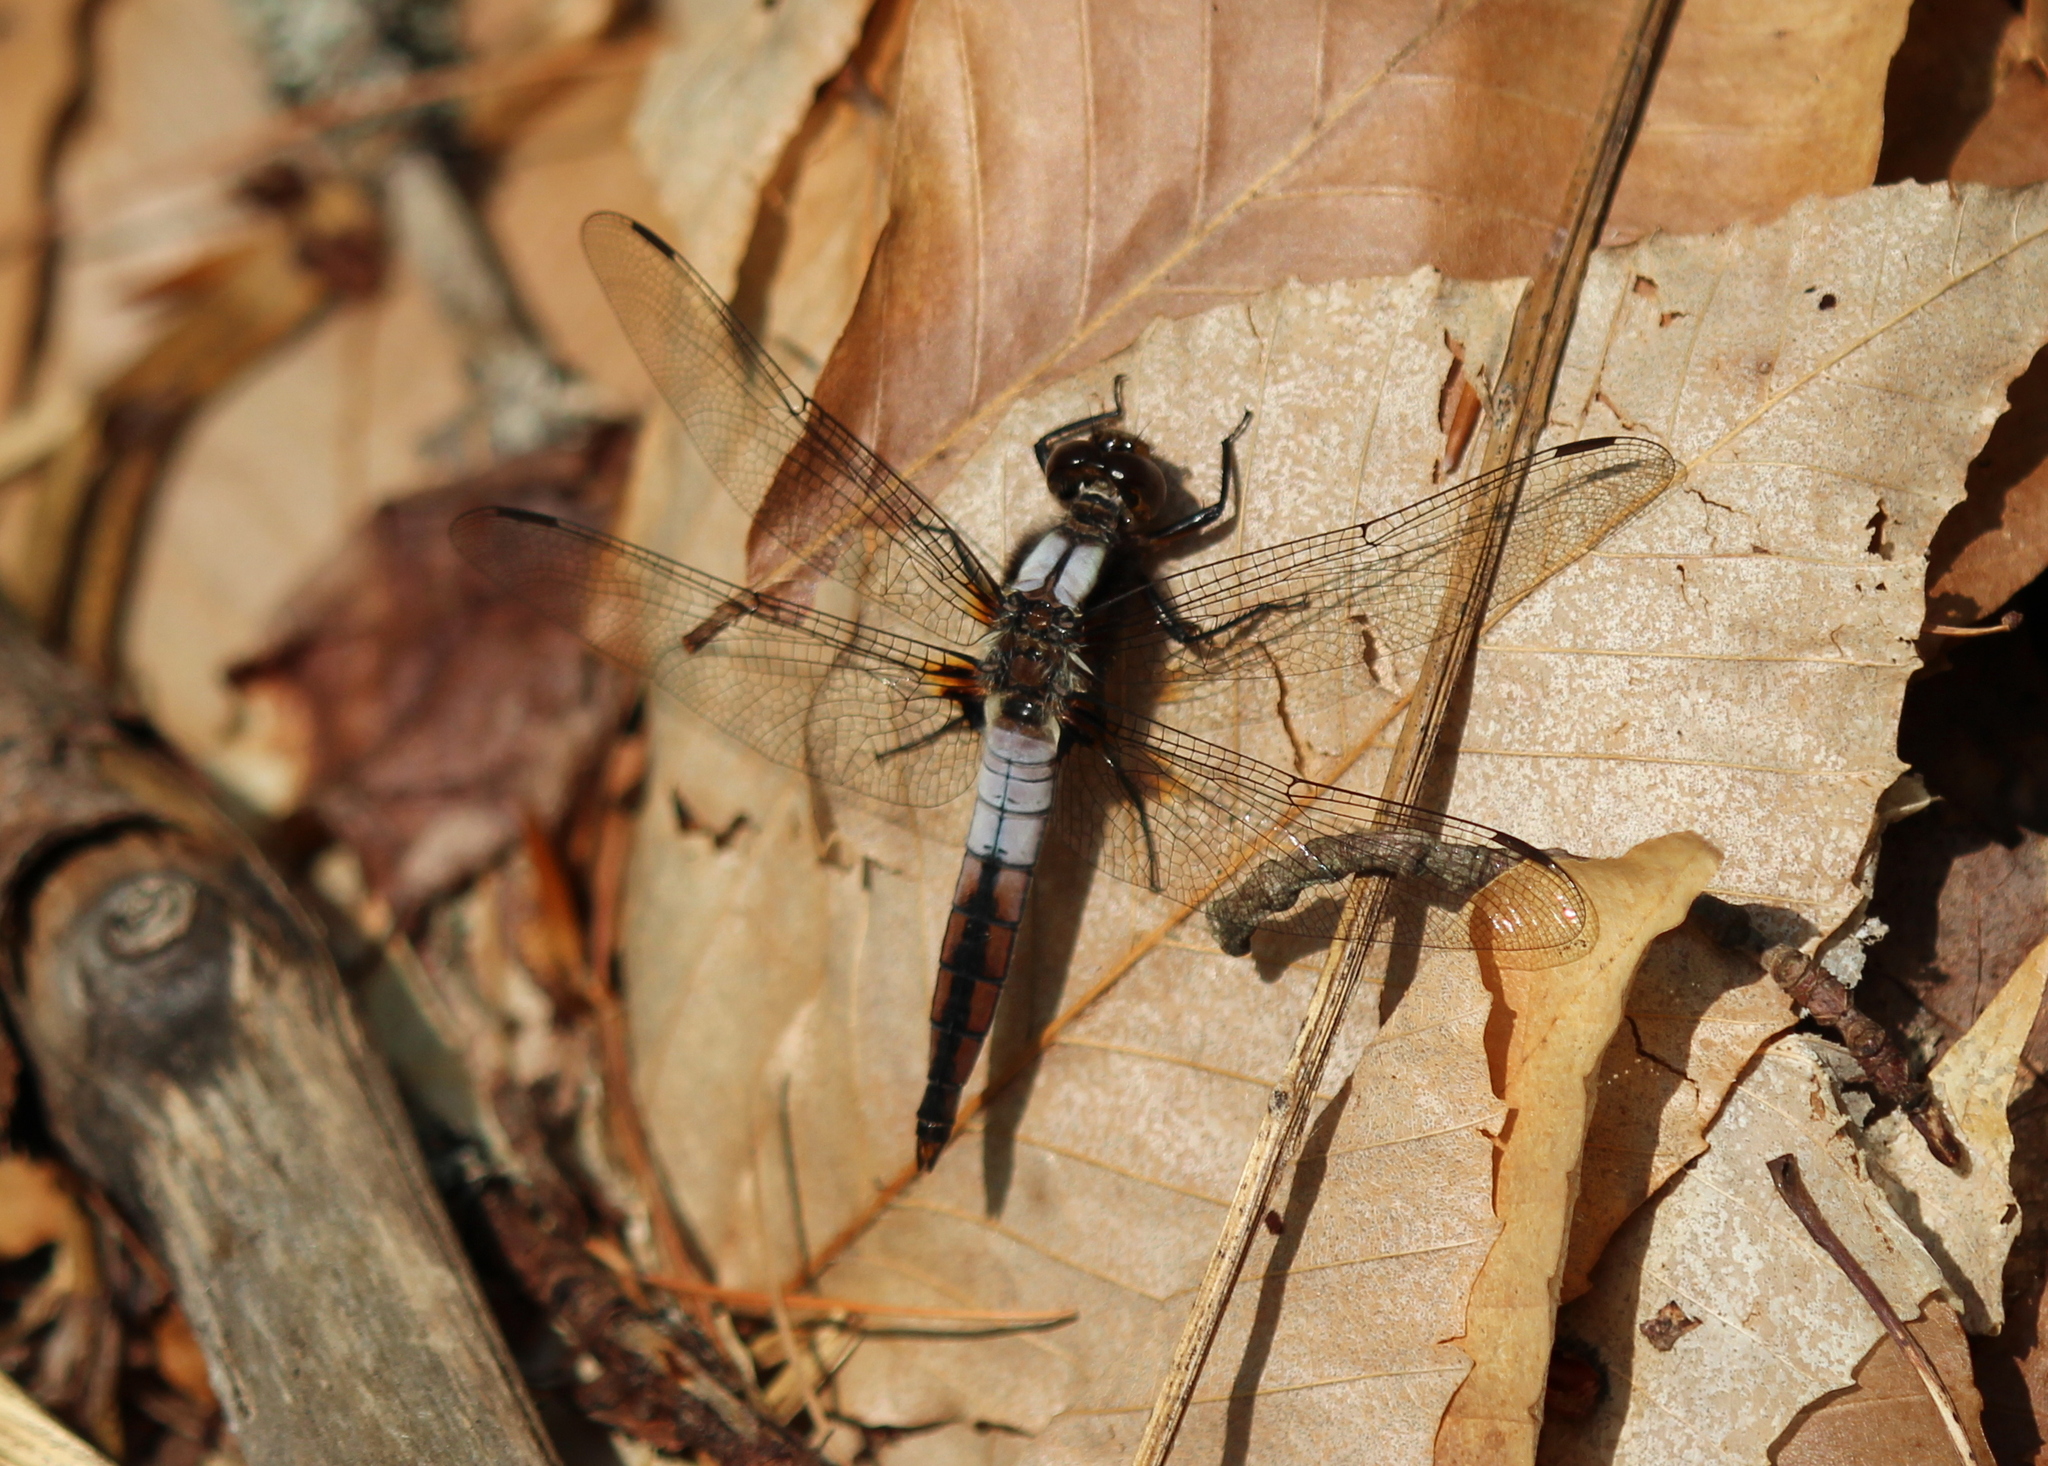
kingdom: Animalia
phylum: Arthropoda
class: Insecta
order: Odonata
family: Libellulidae
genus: Ladona
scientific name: Ladona julia
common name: Chalk-fronted corporal
